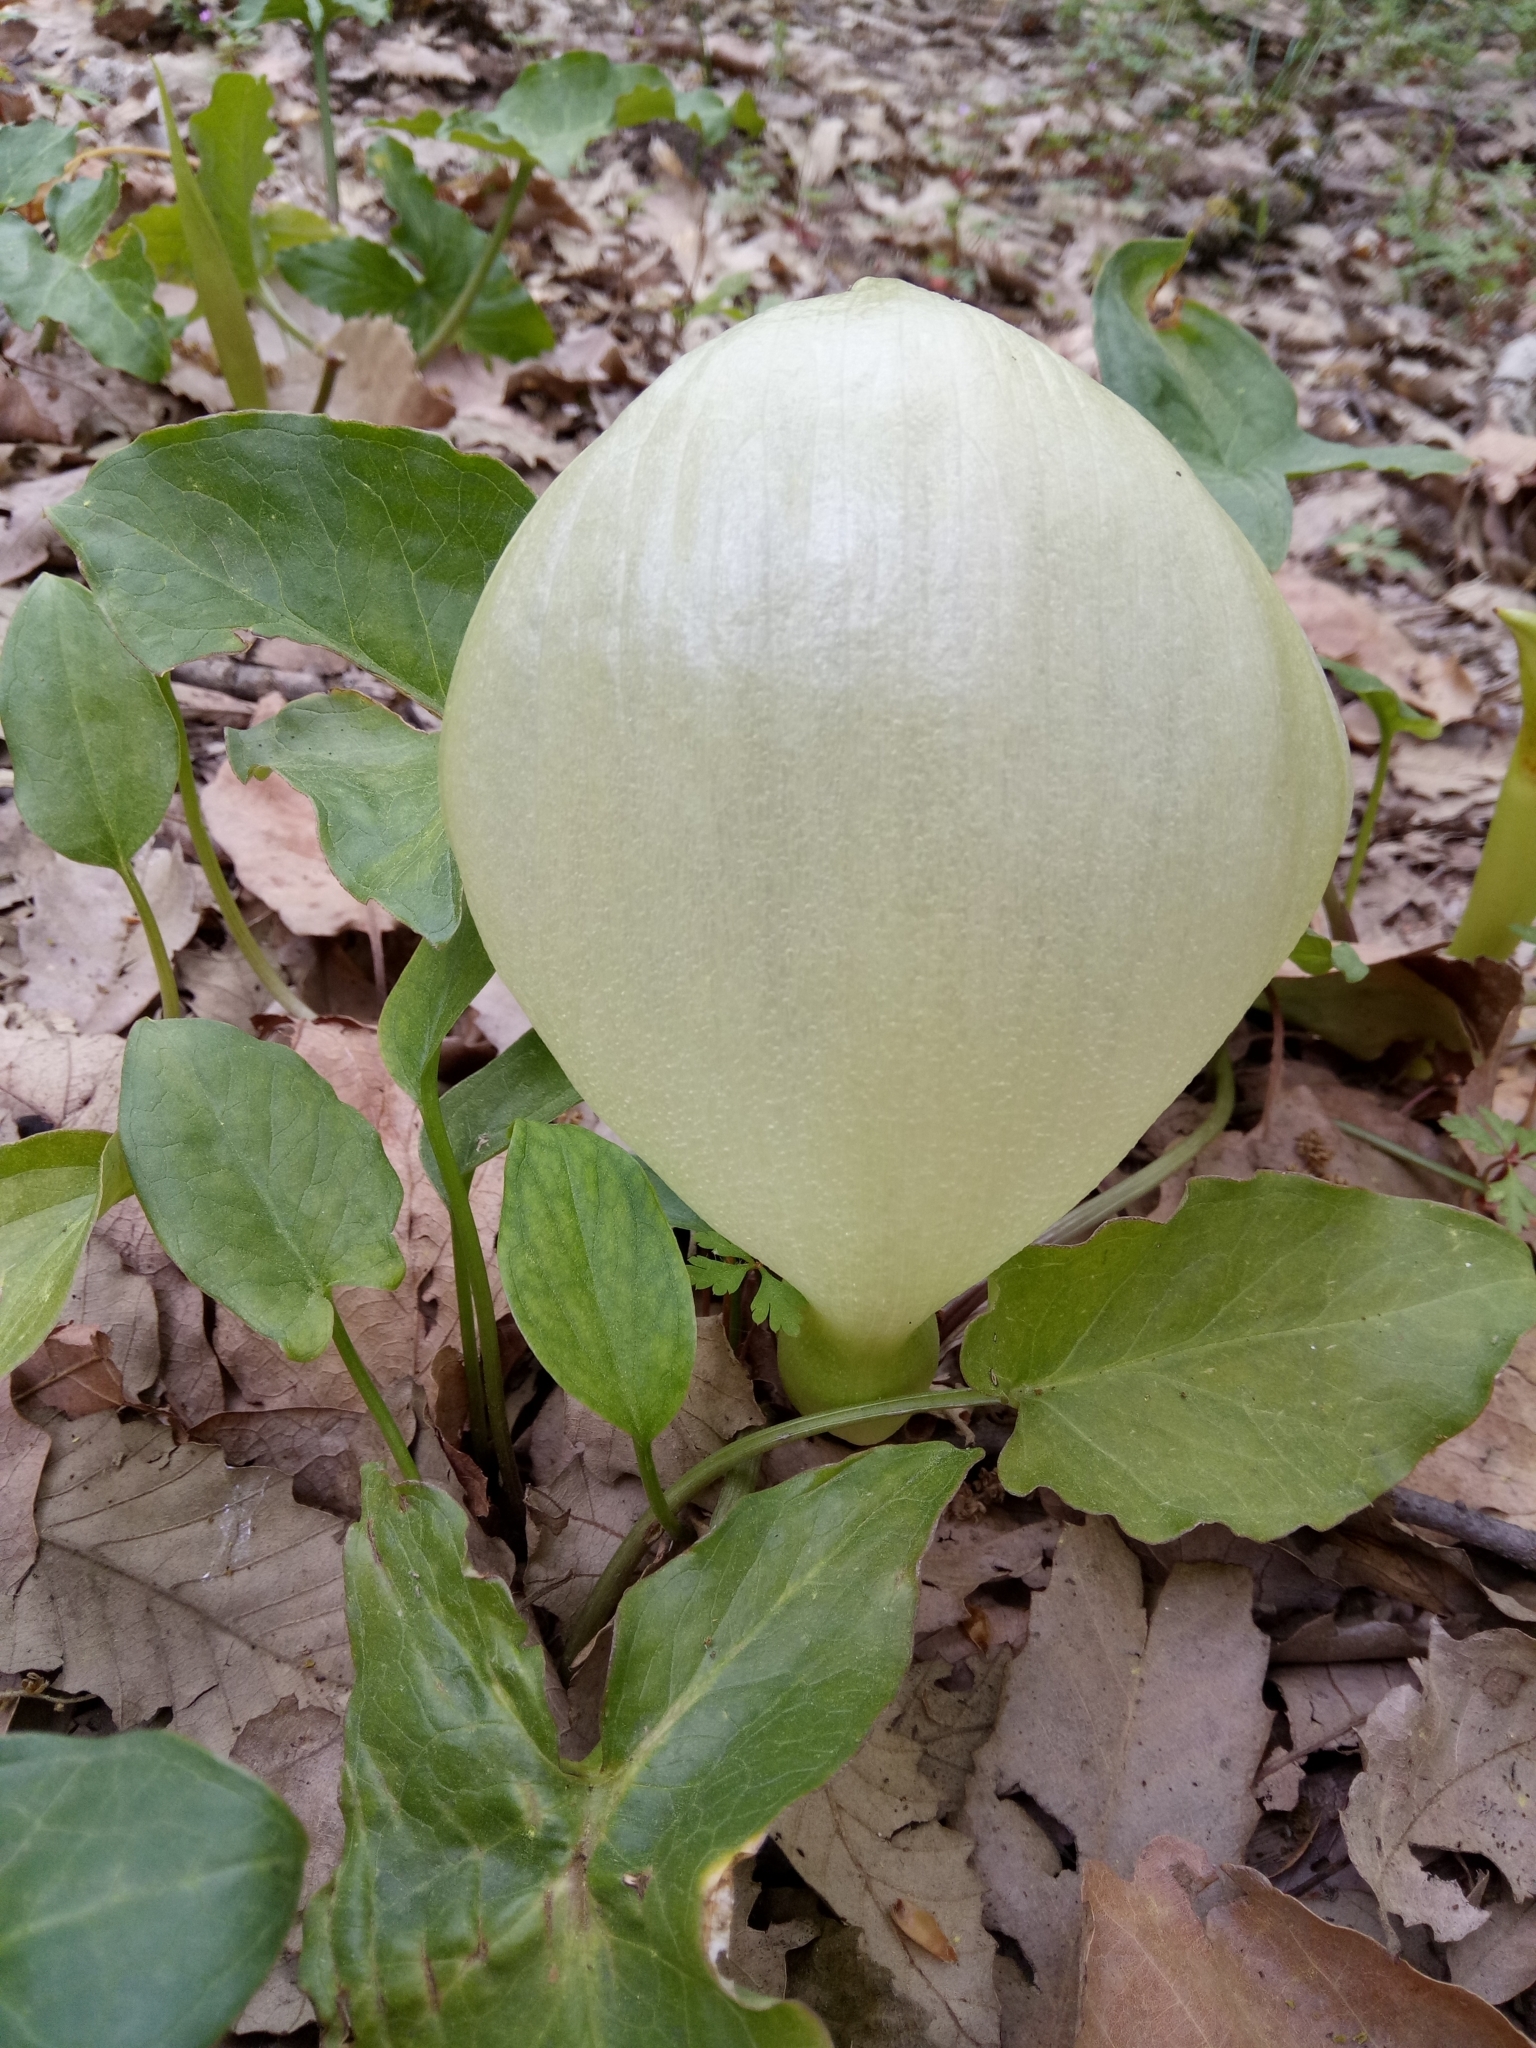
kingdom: Plantae
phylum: Tracheophyta
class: Liliopsida
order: Alismatales
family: Araceae
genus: Arum
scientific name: Arum italicum
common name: Italian lords-and-ladies
